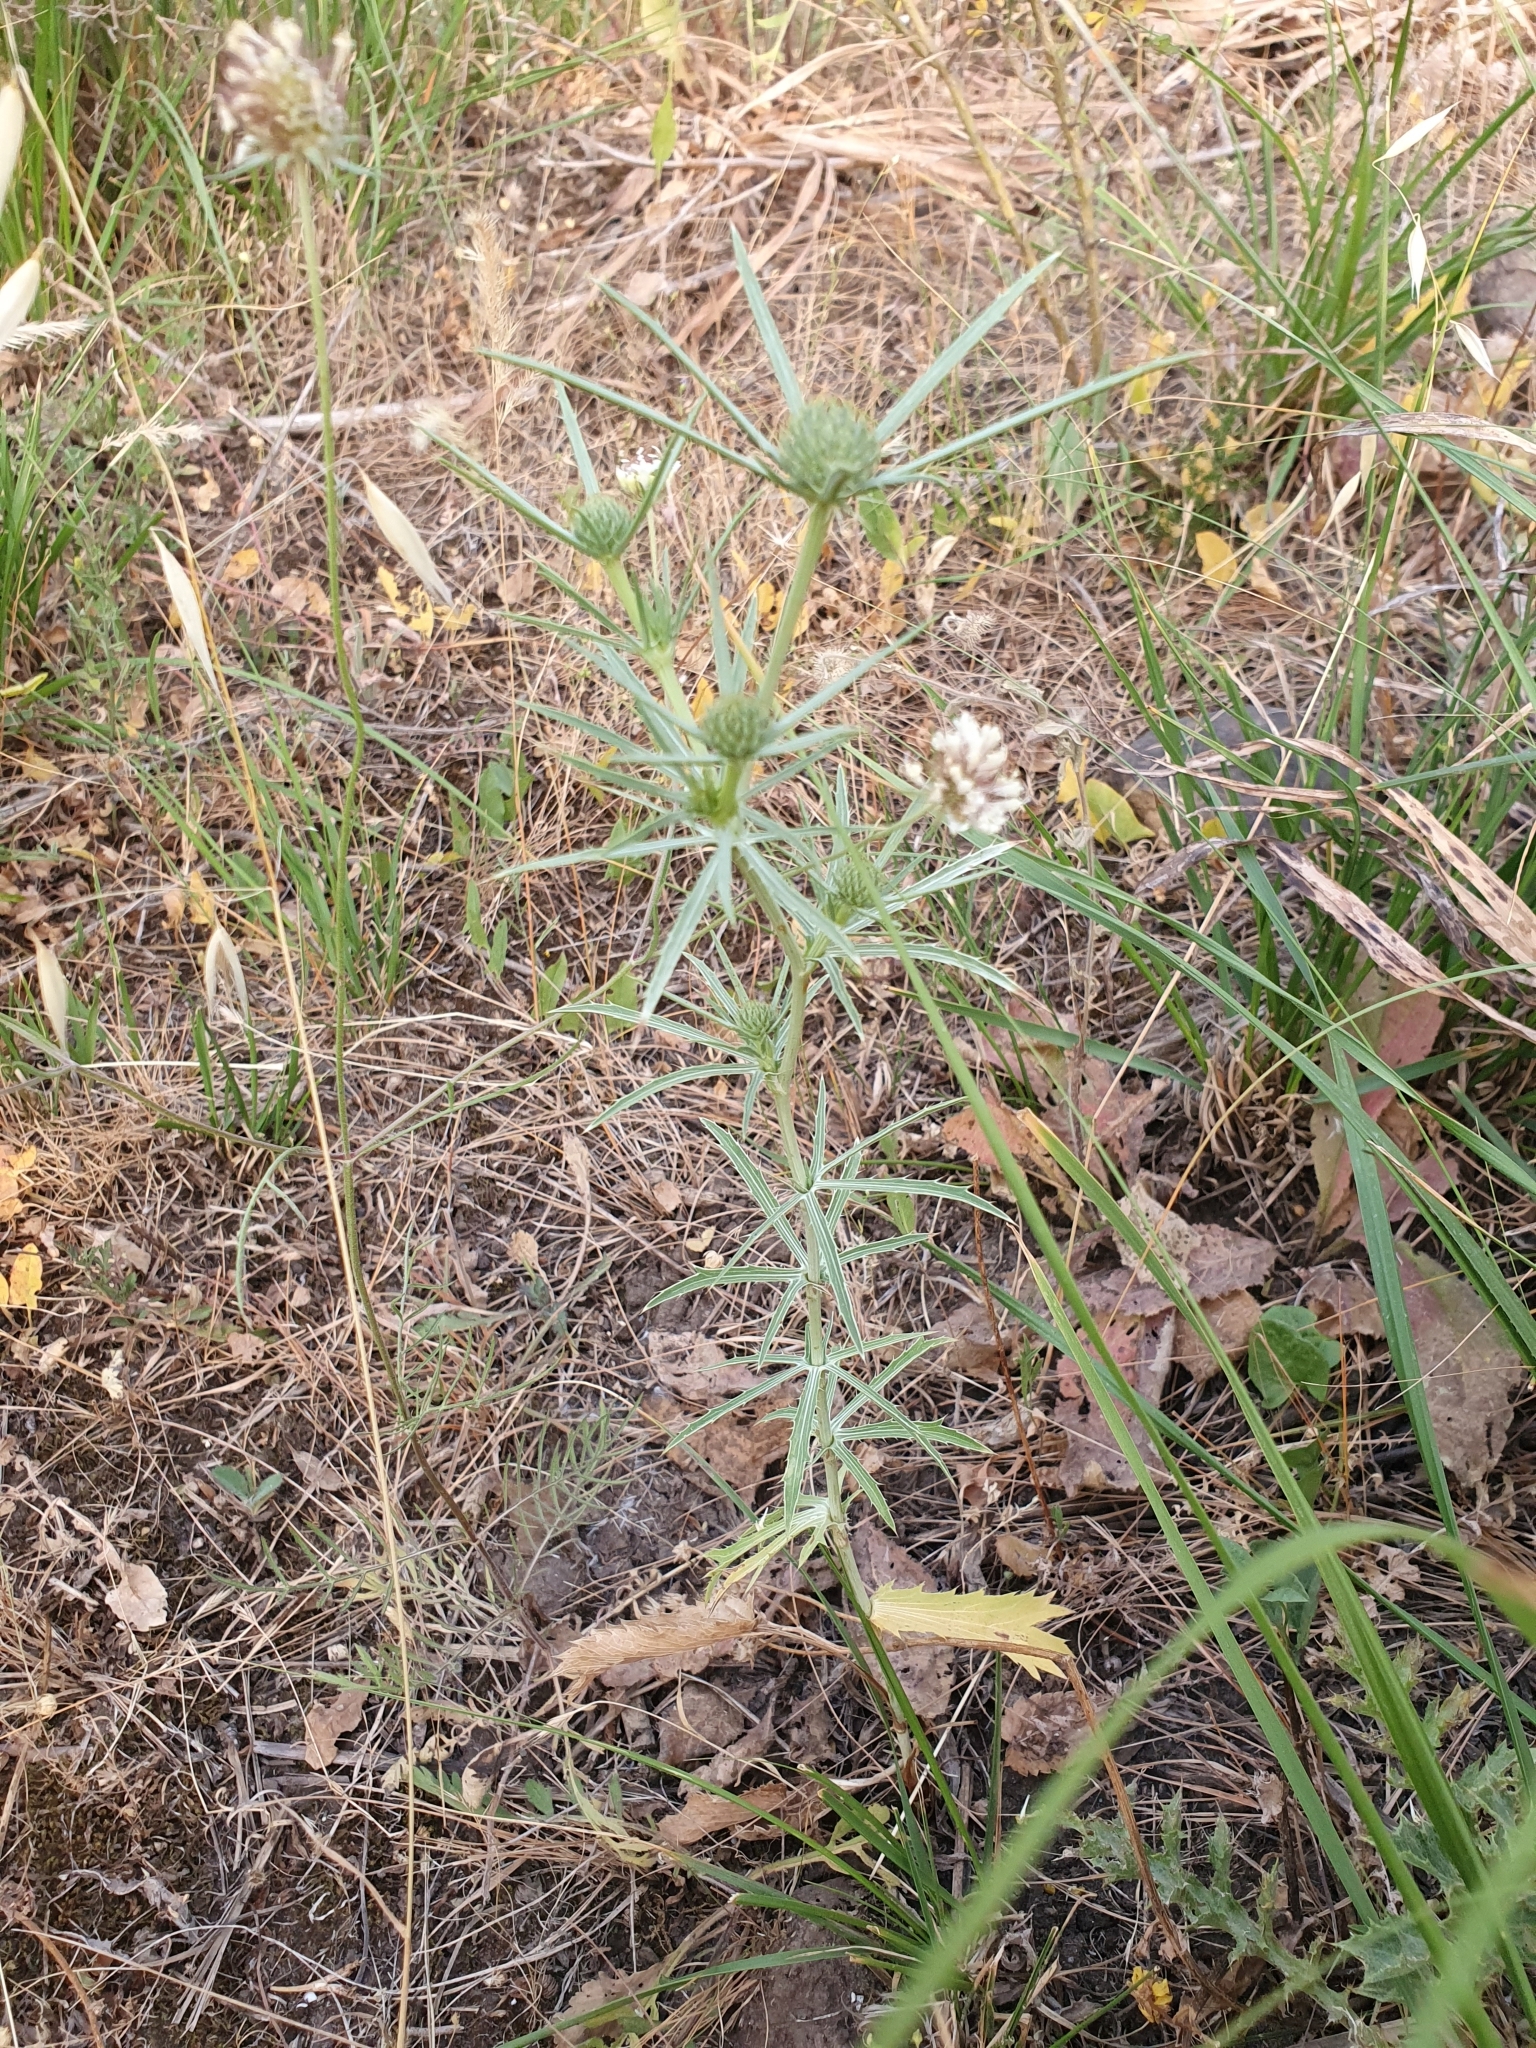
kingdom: Plantae
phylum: Tracheophyta
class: Magnoliopsida
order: Apiales
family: Apiaceae
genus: Eryngium
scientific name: Eryngium tricuspidatum
